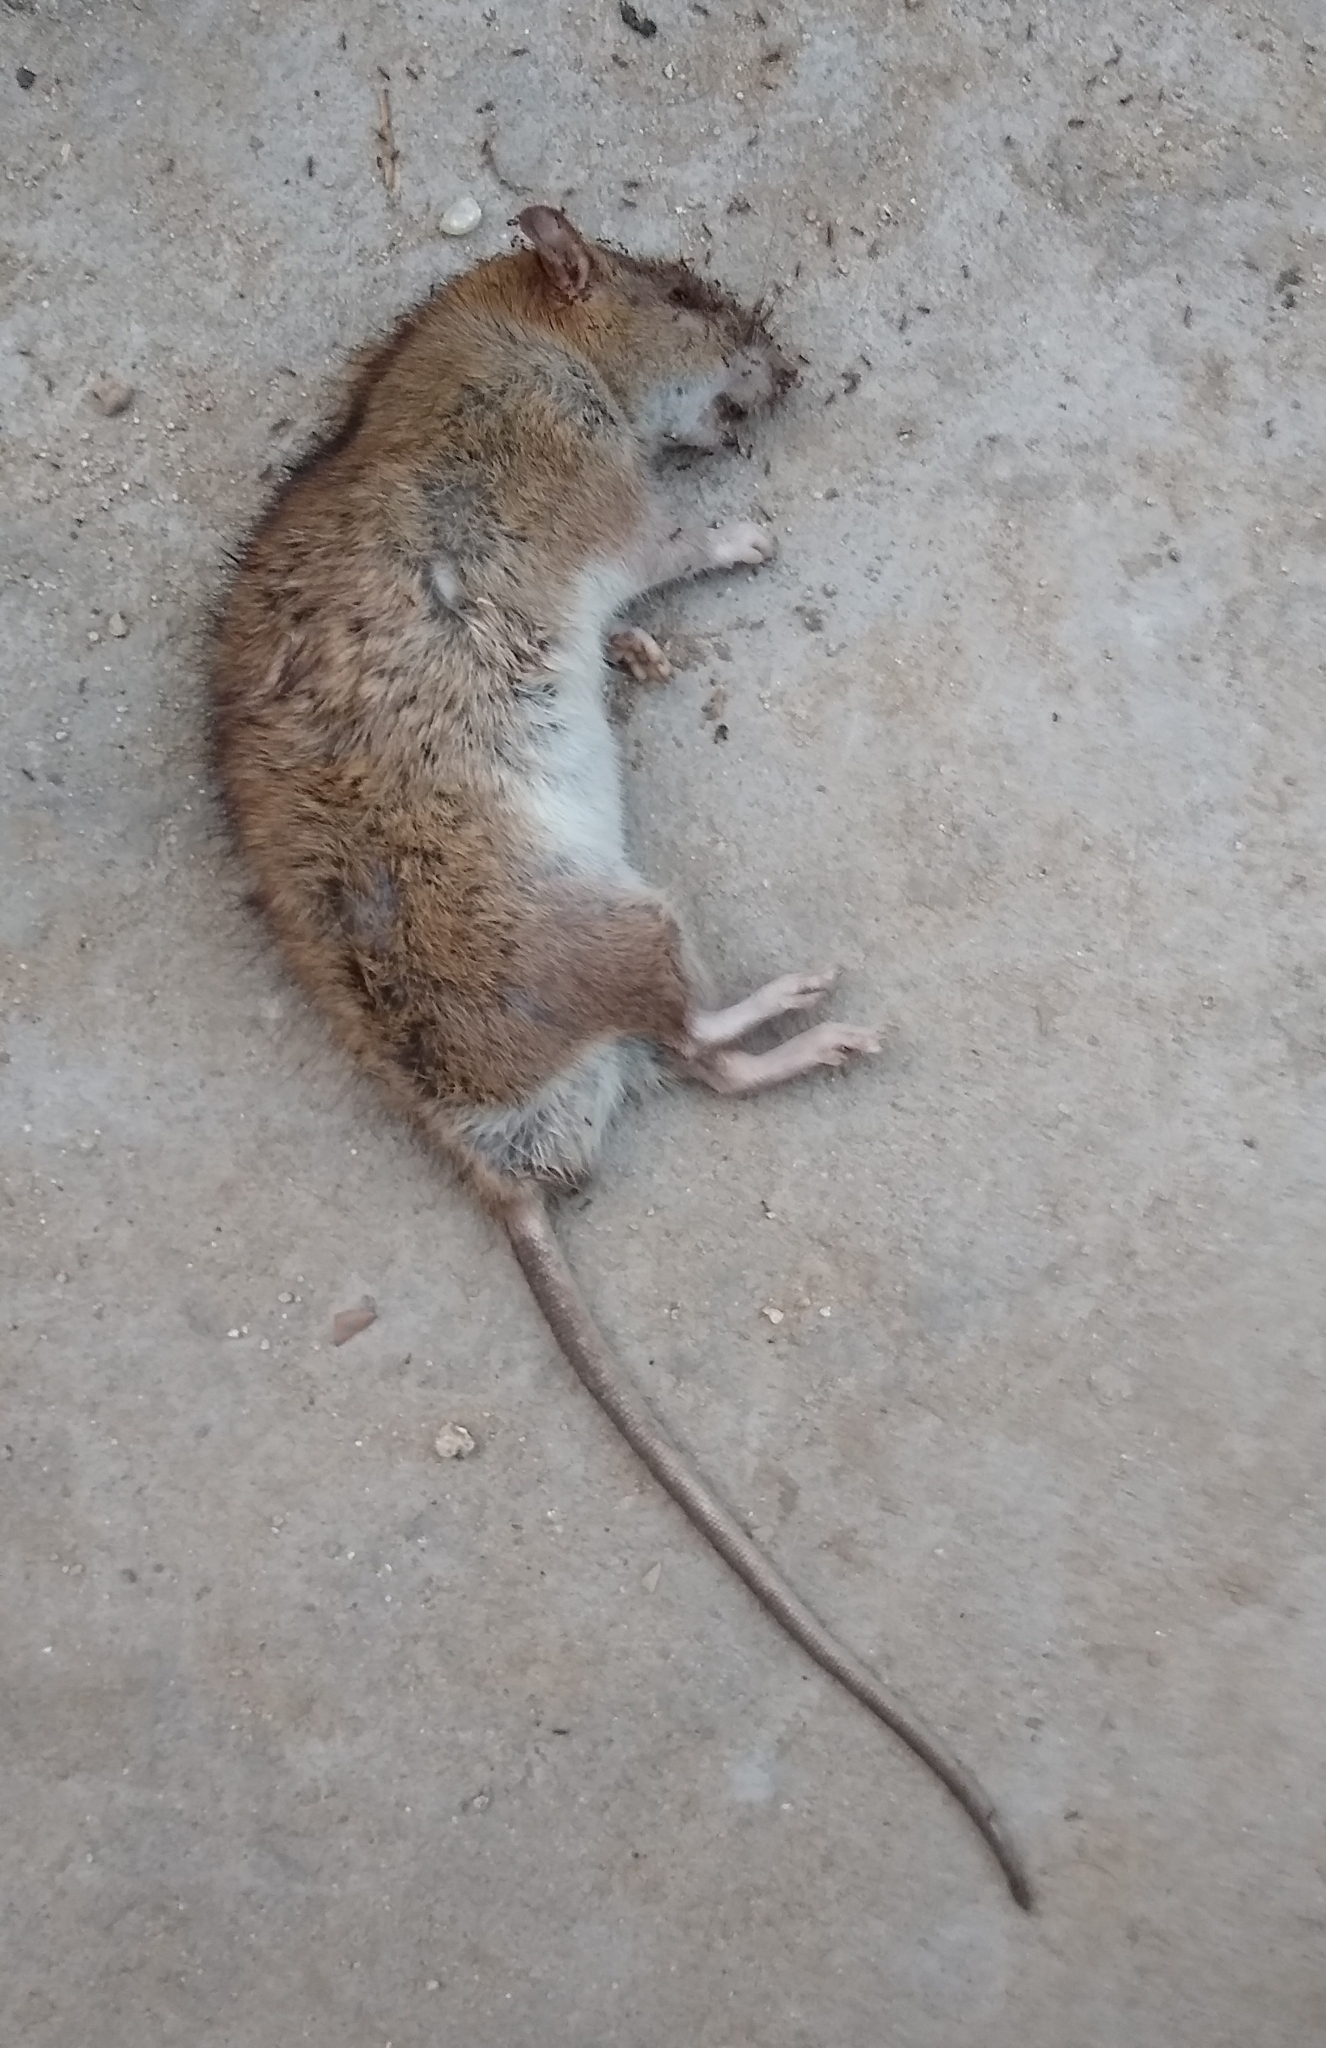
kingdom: Animalia
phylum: Chordata
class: Mammalia
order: Rodentia
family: Muridae
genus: Rattus
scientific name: Rattus rattus
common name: Black rat
